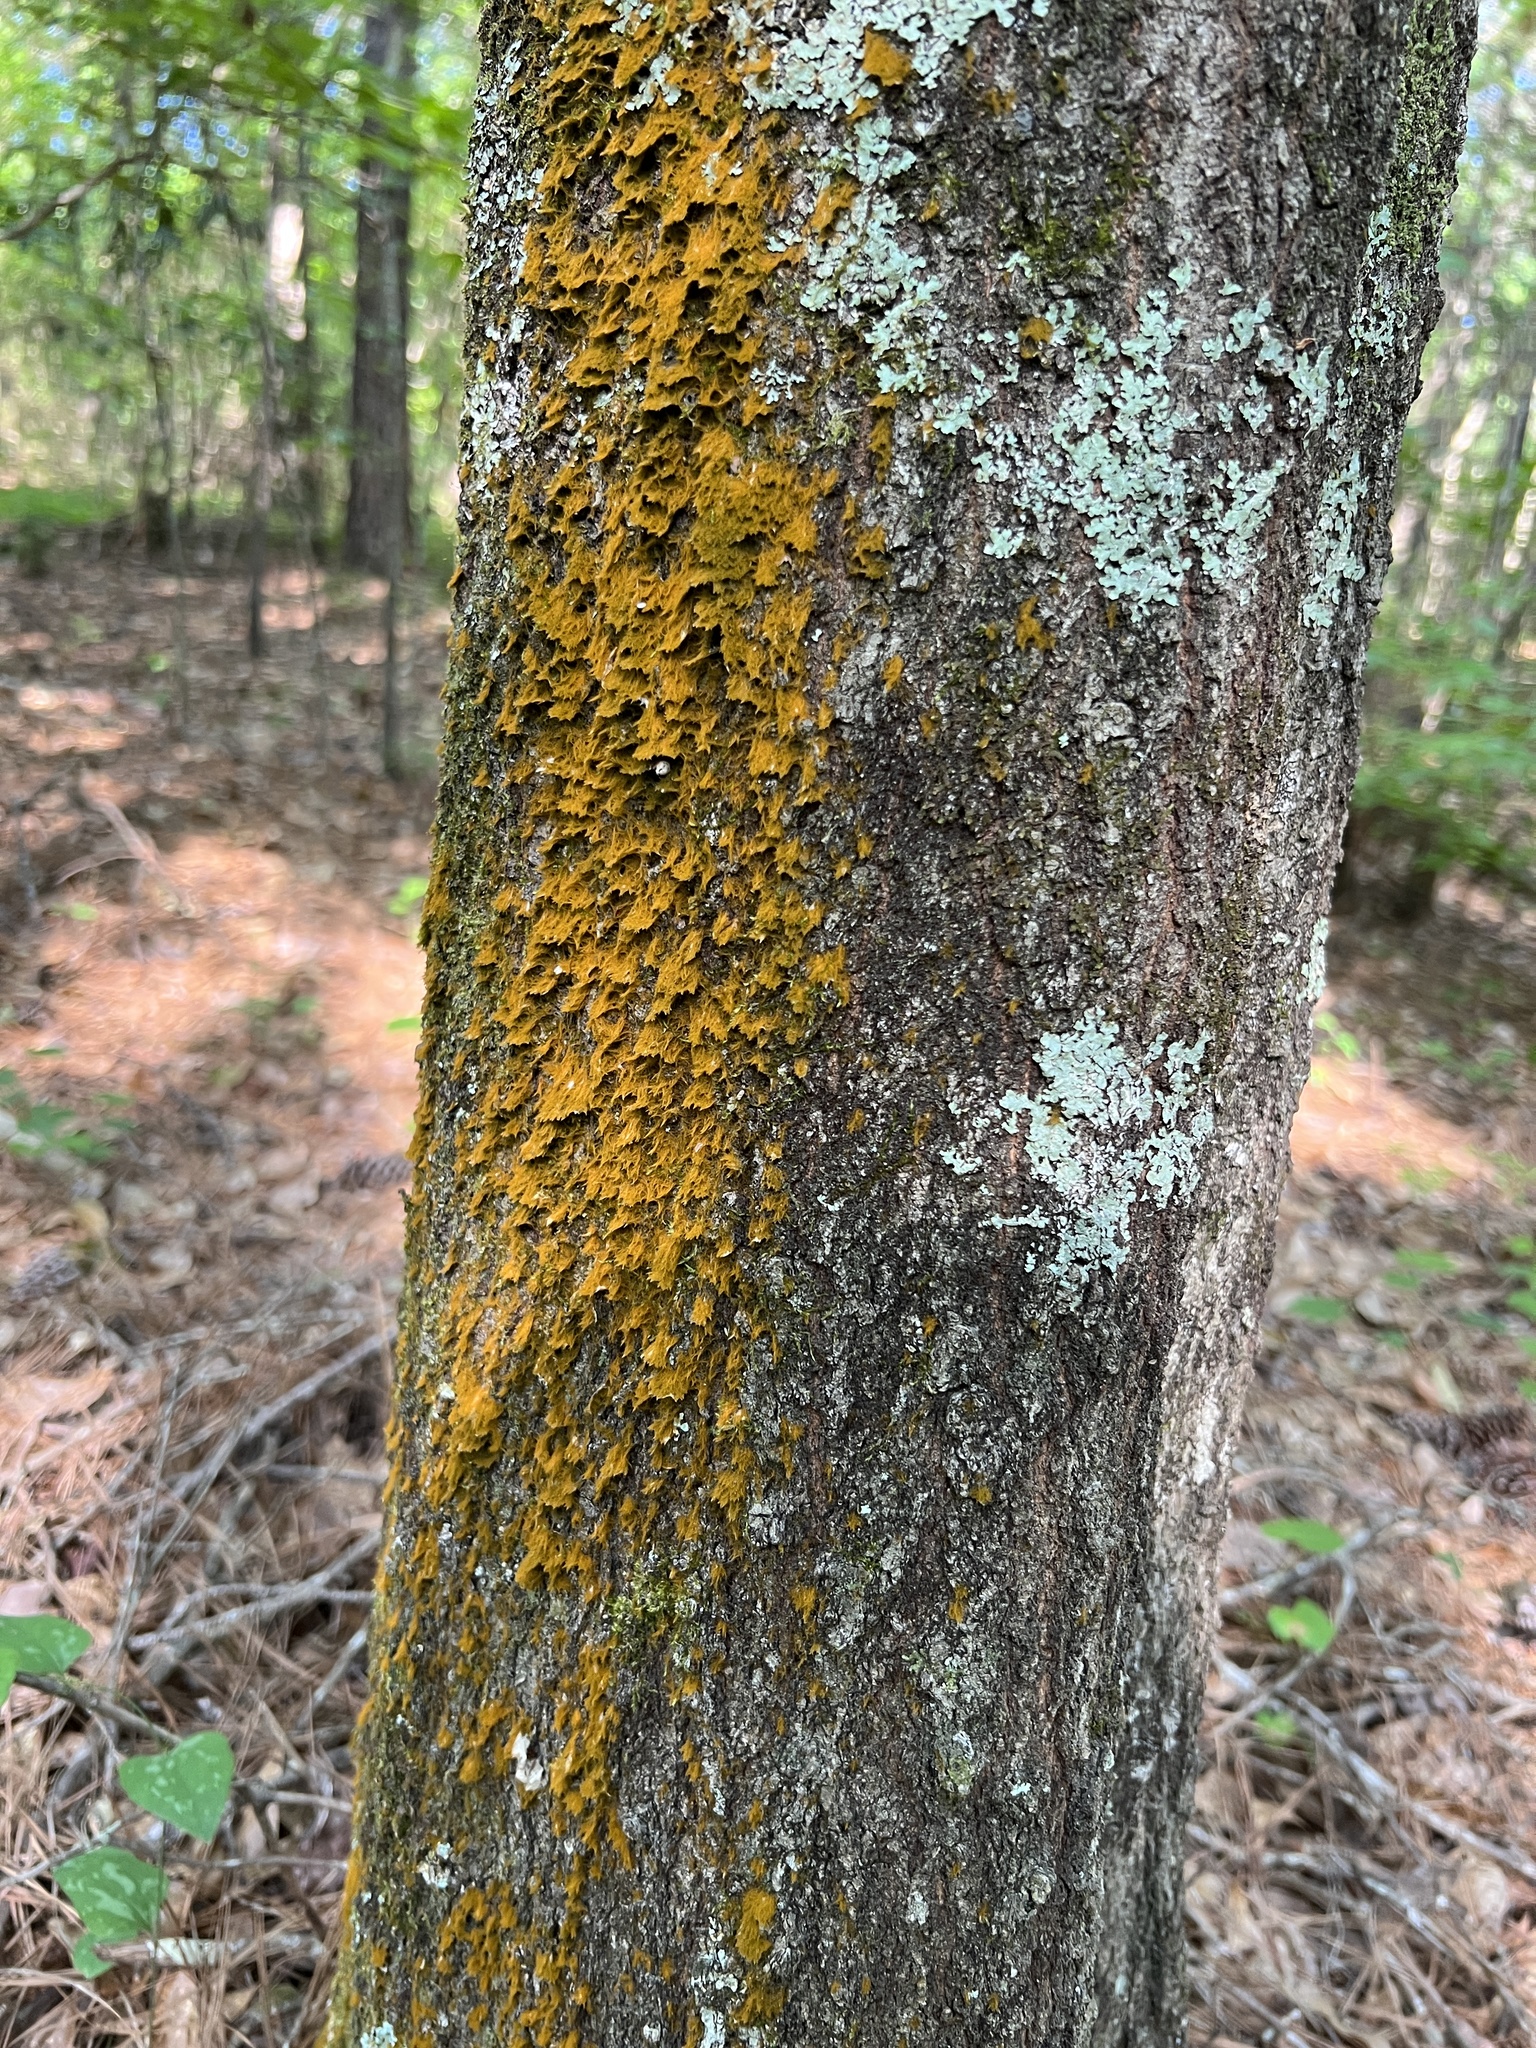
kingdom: Plantae
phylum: Chlorophyta
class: Ulvophyceae
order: Trentepohliales
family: Trentepohliaceae
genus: Trentepohlia
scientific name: Trentepohlia aurea
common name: Orange rock hair
